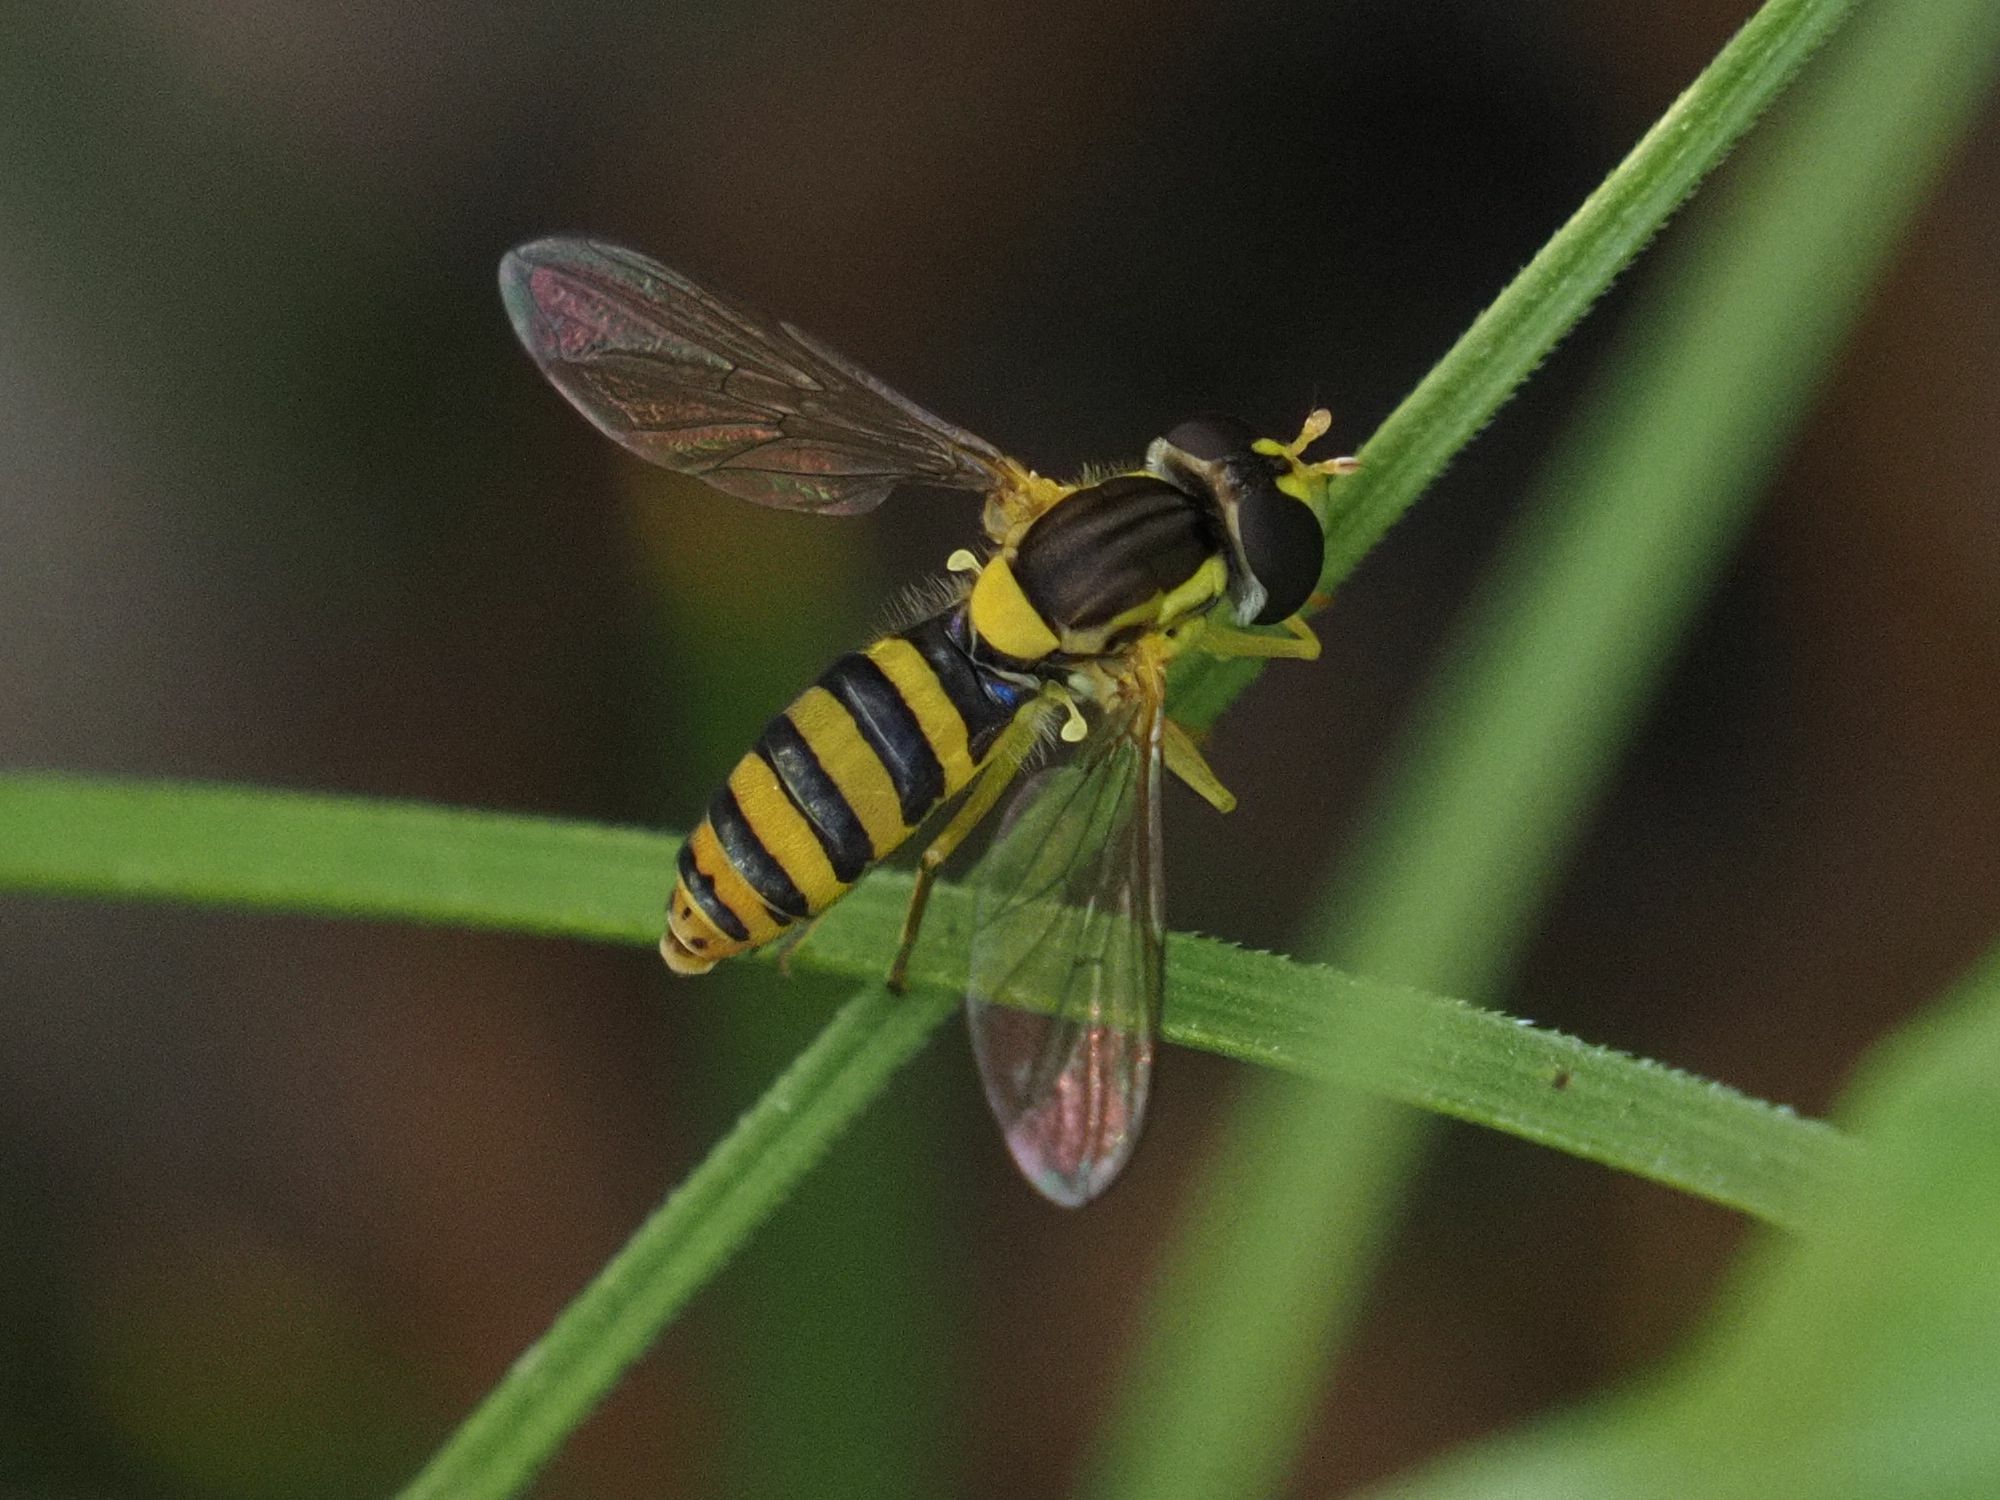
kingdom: Animalia
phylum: Arthropoda
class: Insecta
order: Diptera
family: Syrphidae
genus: Sphaerophoria
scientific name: Sphaerophoria
